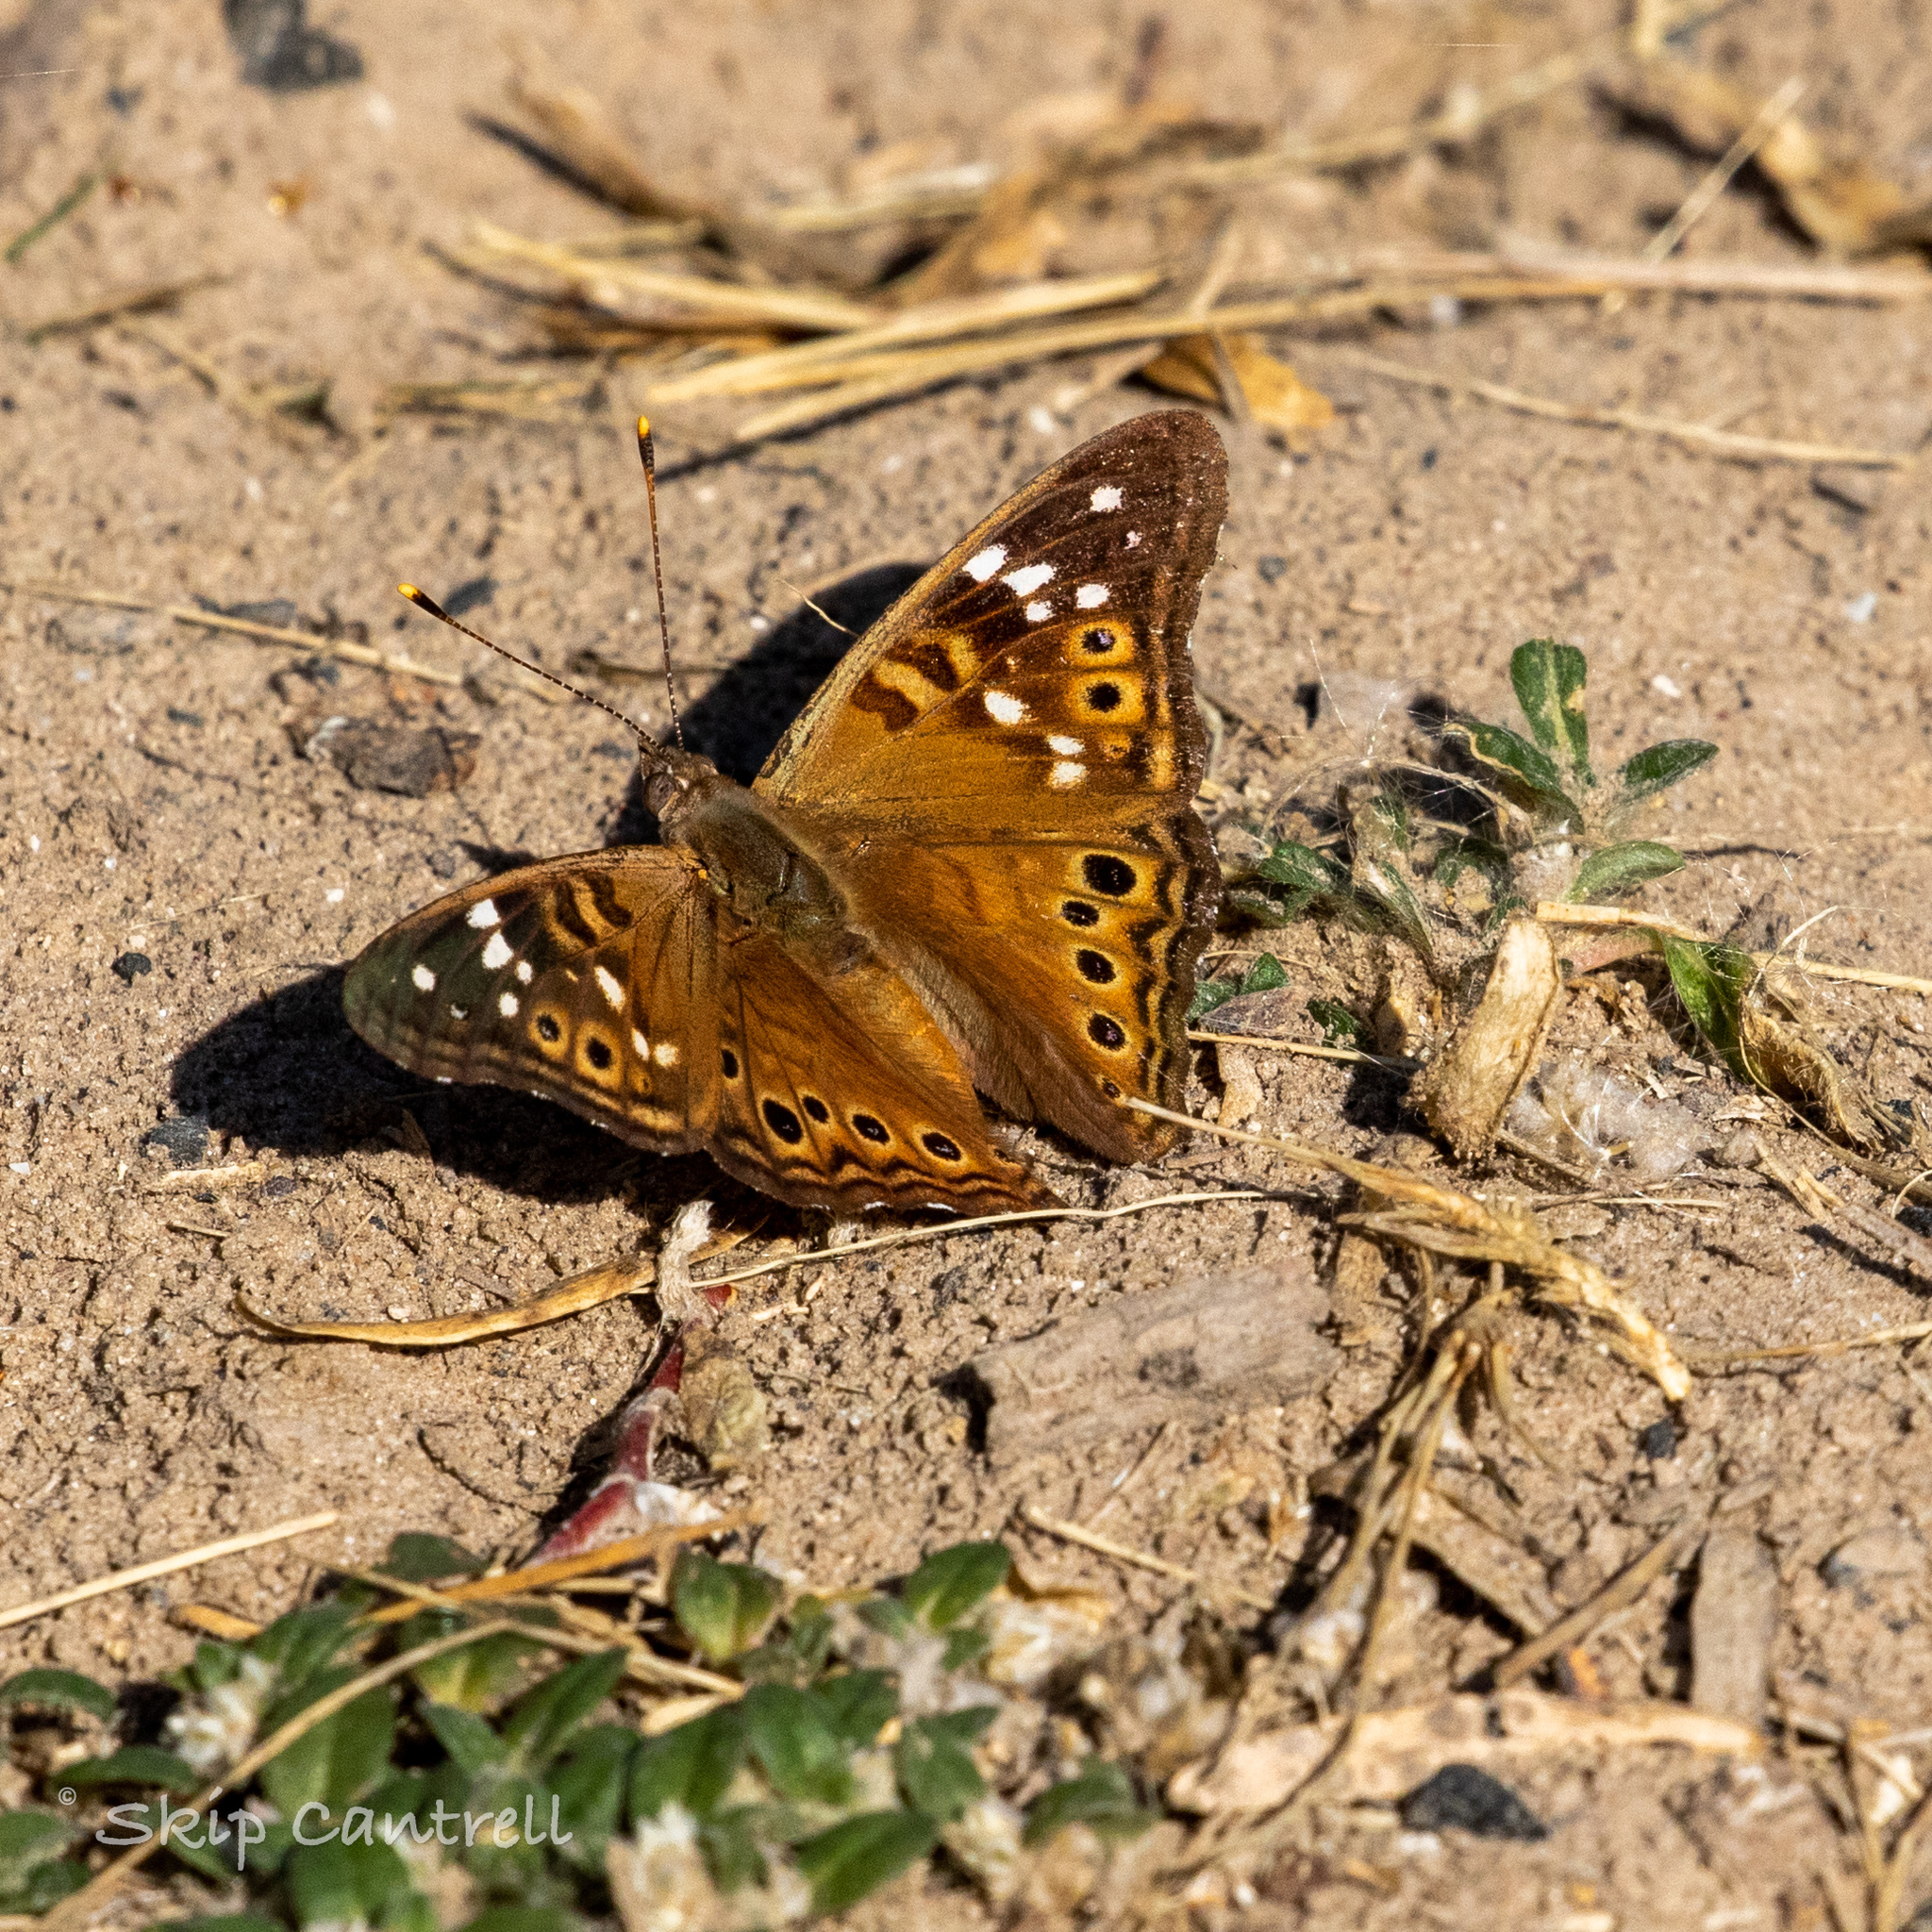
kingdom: Animalia
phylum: Arthropoda
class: Insecta
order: Lepidoptera
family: Nymphalidae
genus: Asterocampa
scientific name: Asterocampa leilia
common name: Empress leilia
